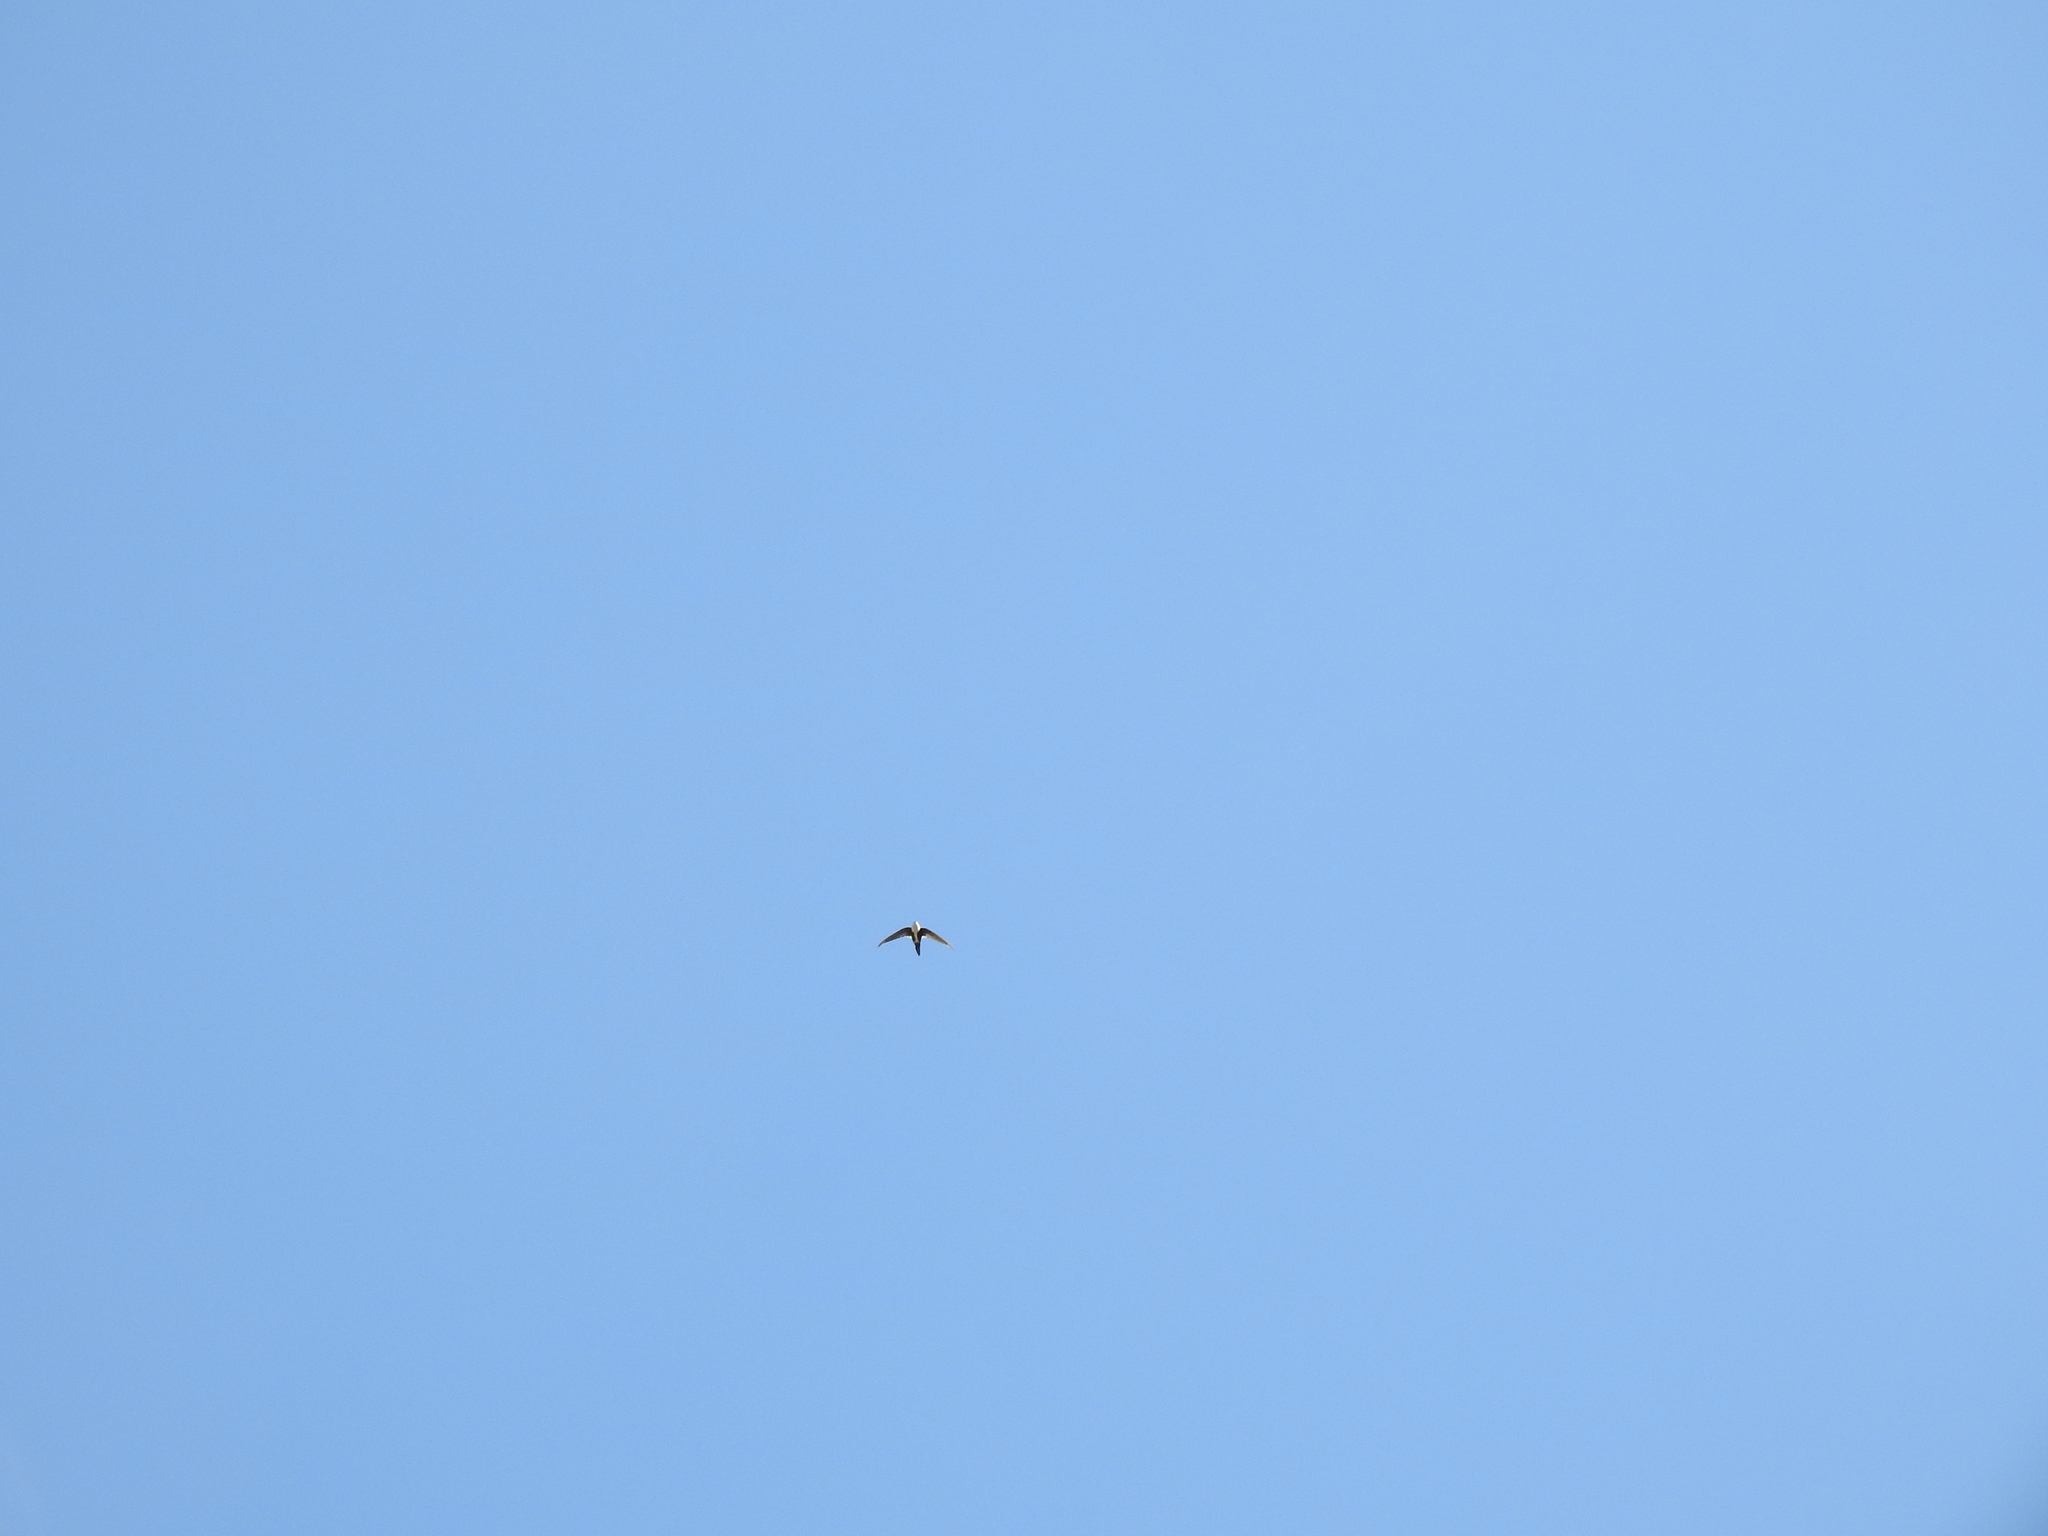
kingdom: Animalia
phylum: Chordata
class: Aves
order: Apodiformes
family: Apodidae
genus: Aeronautes
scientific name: Aeronautes saxatalis
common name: White-throated swift
